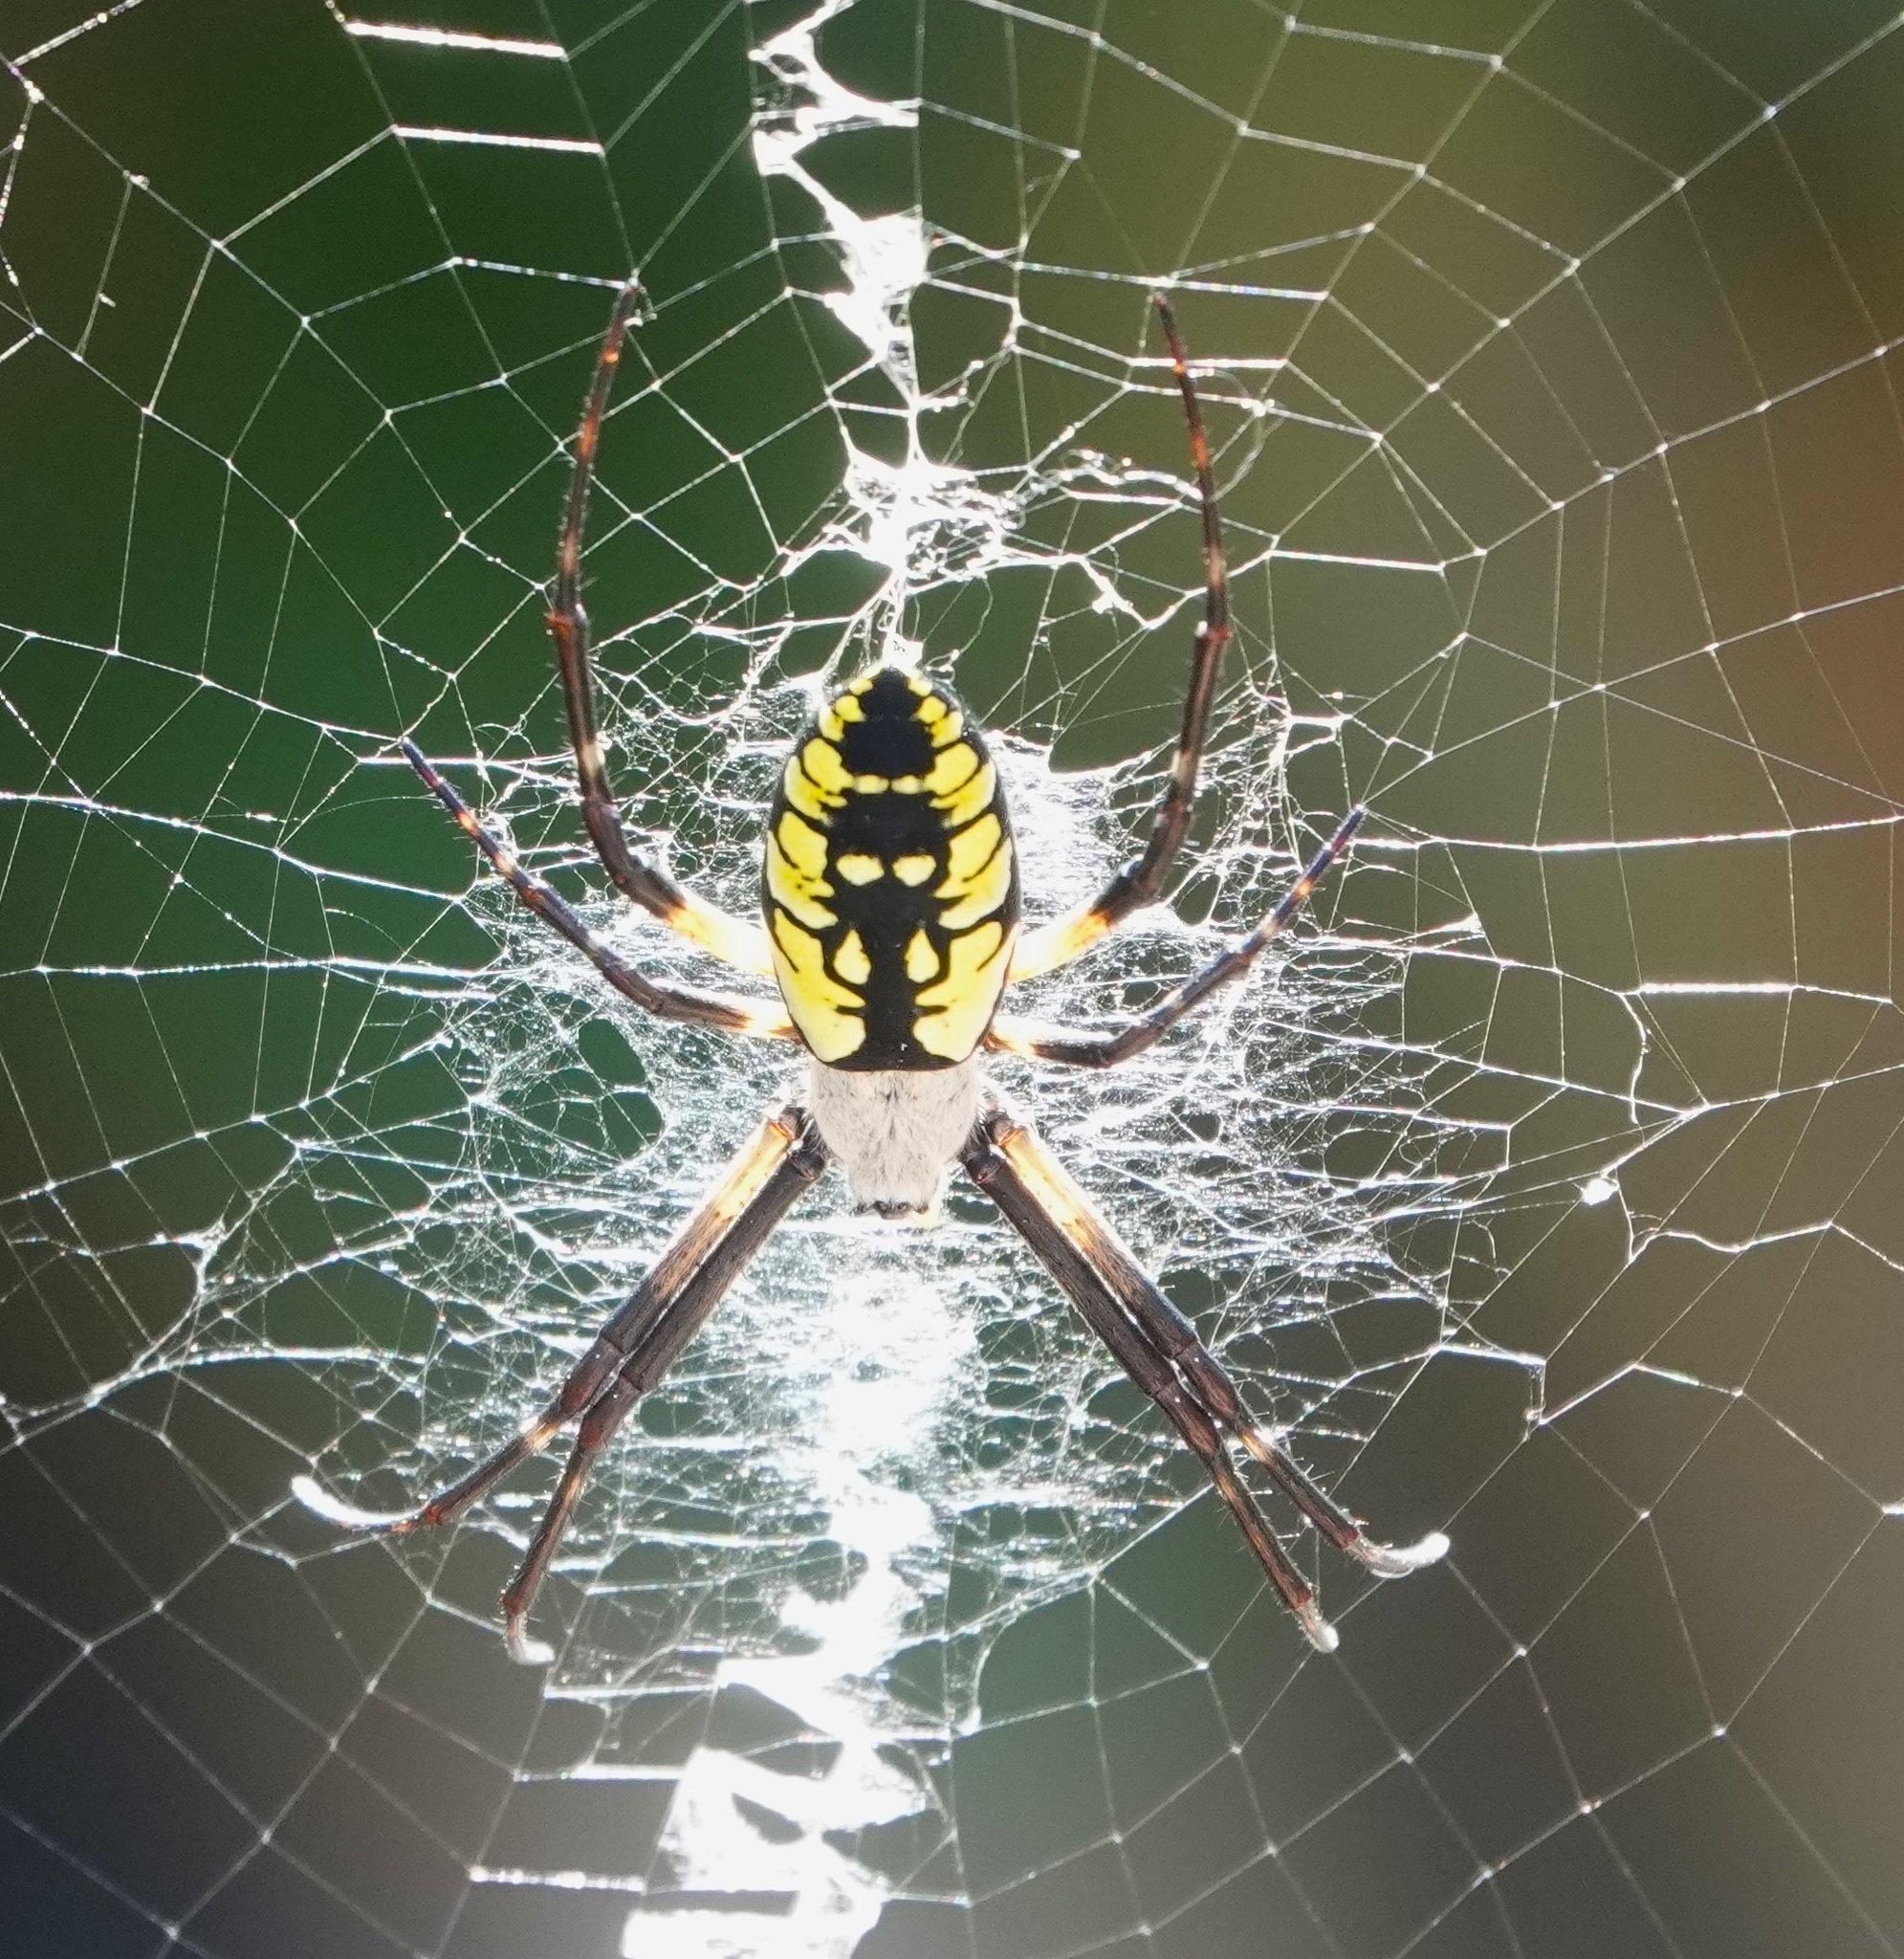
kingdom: Animalia
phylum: Arthropoda
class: Arachnida
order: Araneae
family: Araneidae
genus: Argiope
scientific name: Argiope aurantia
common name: Orb weavers
